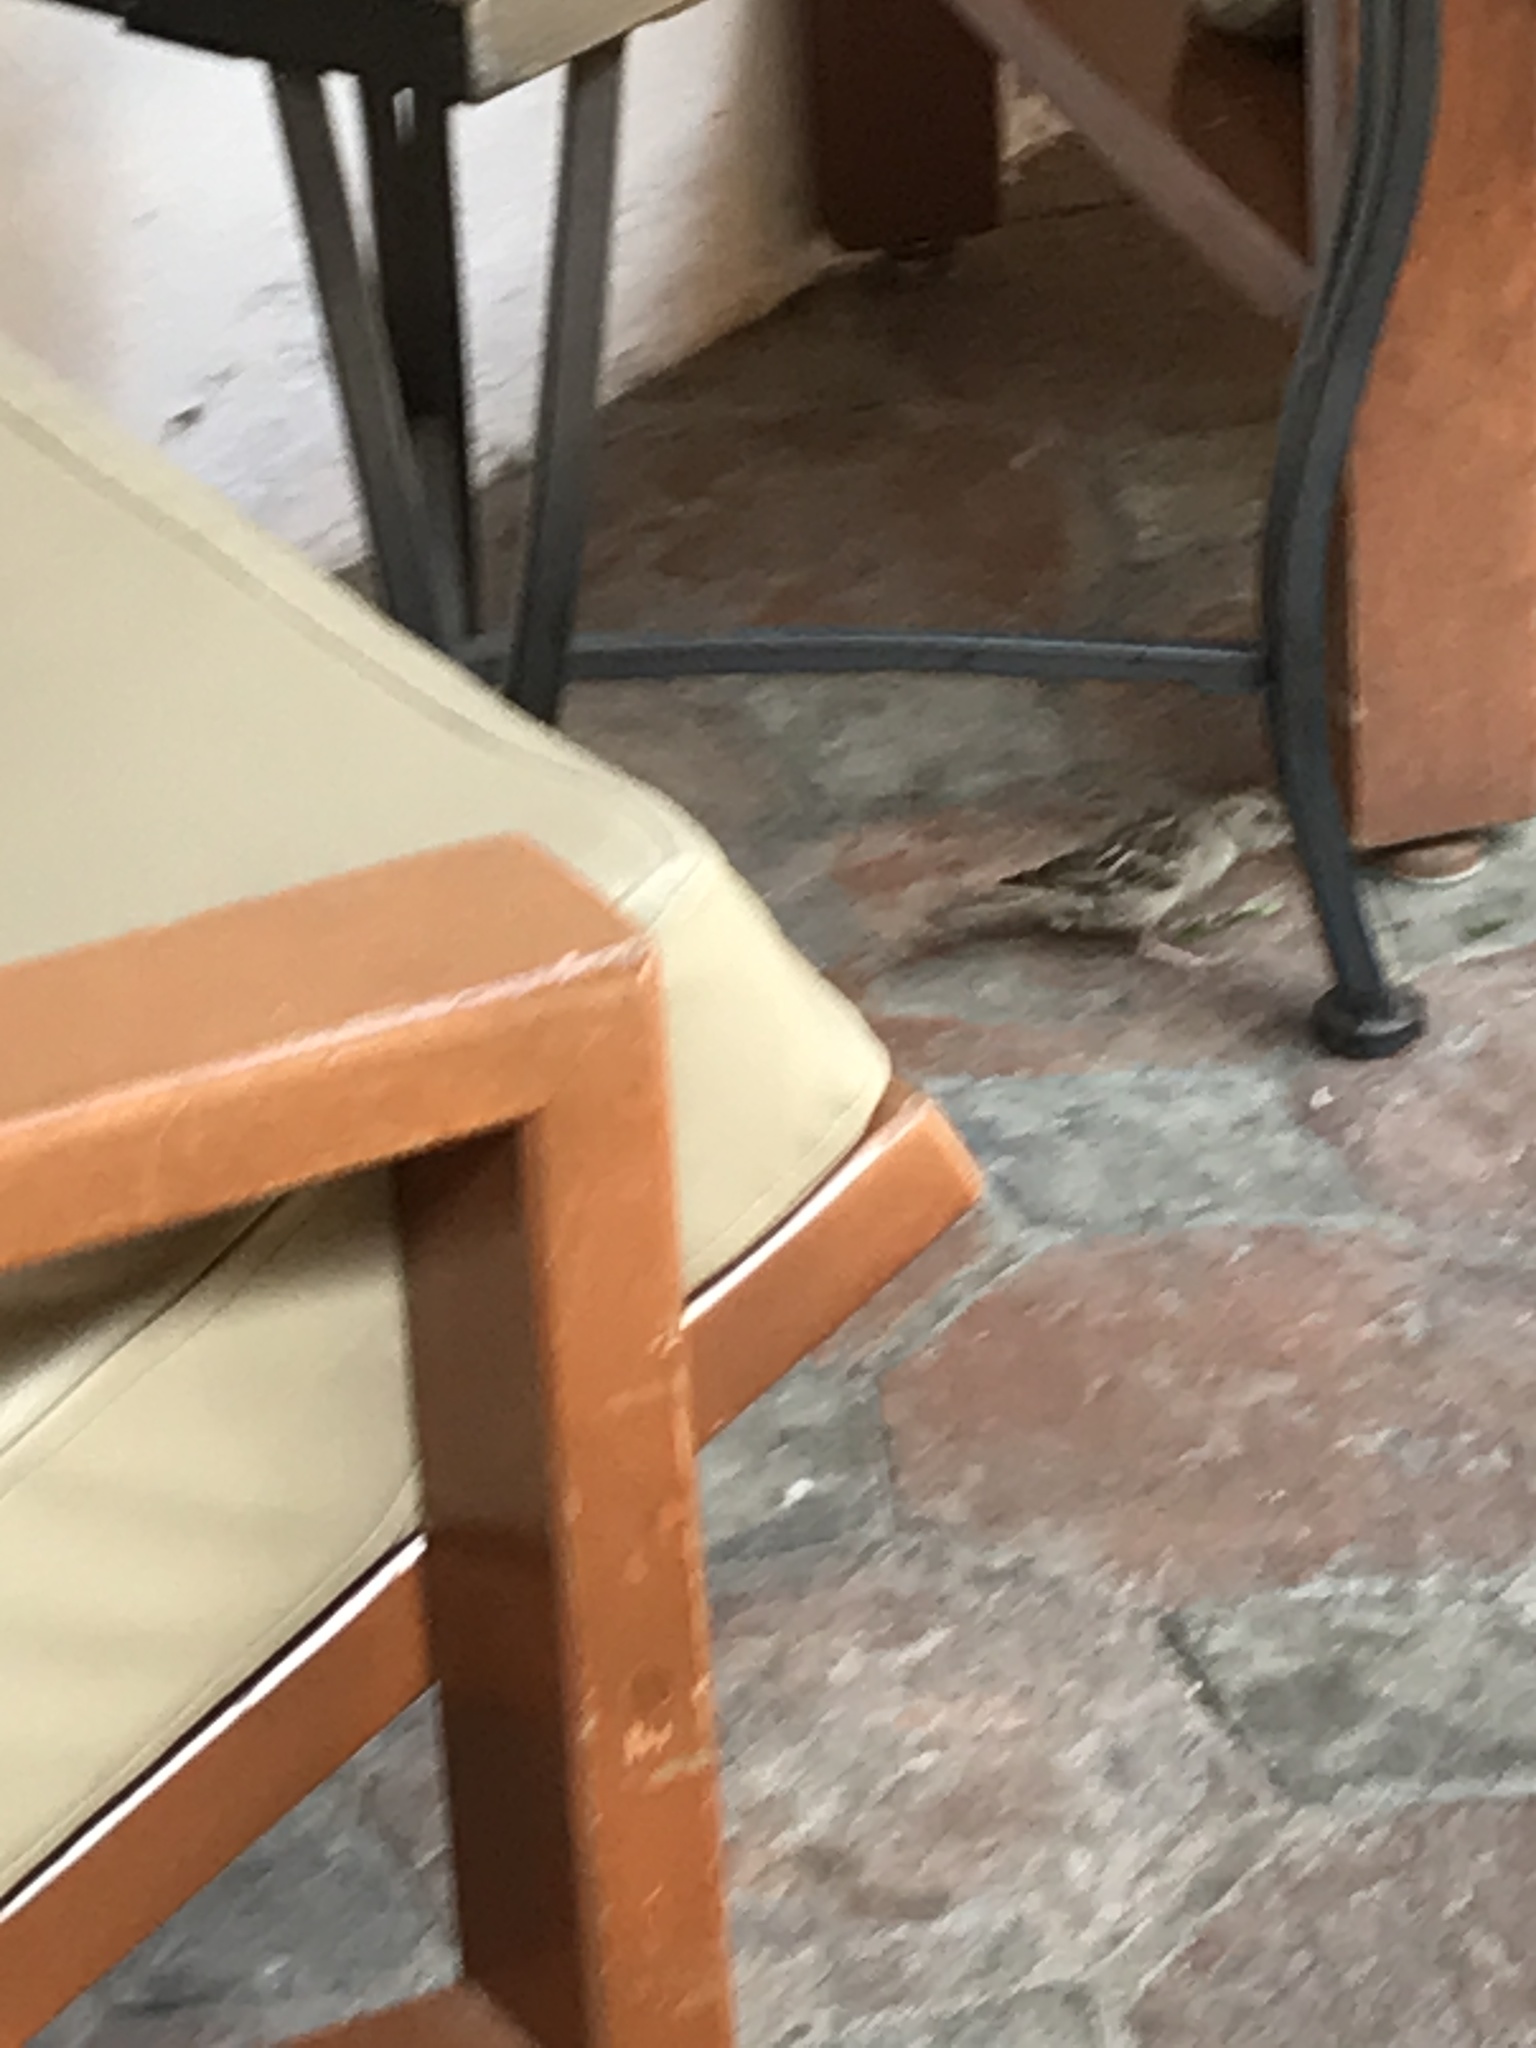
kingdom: Animalia
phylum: Chordata
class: Aves
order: Passeriformes
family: Passeridae
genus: Passer
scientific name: Passer domesticus
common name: House sparrow
